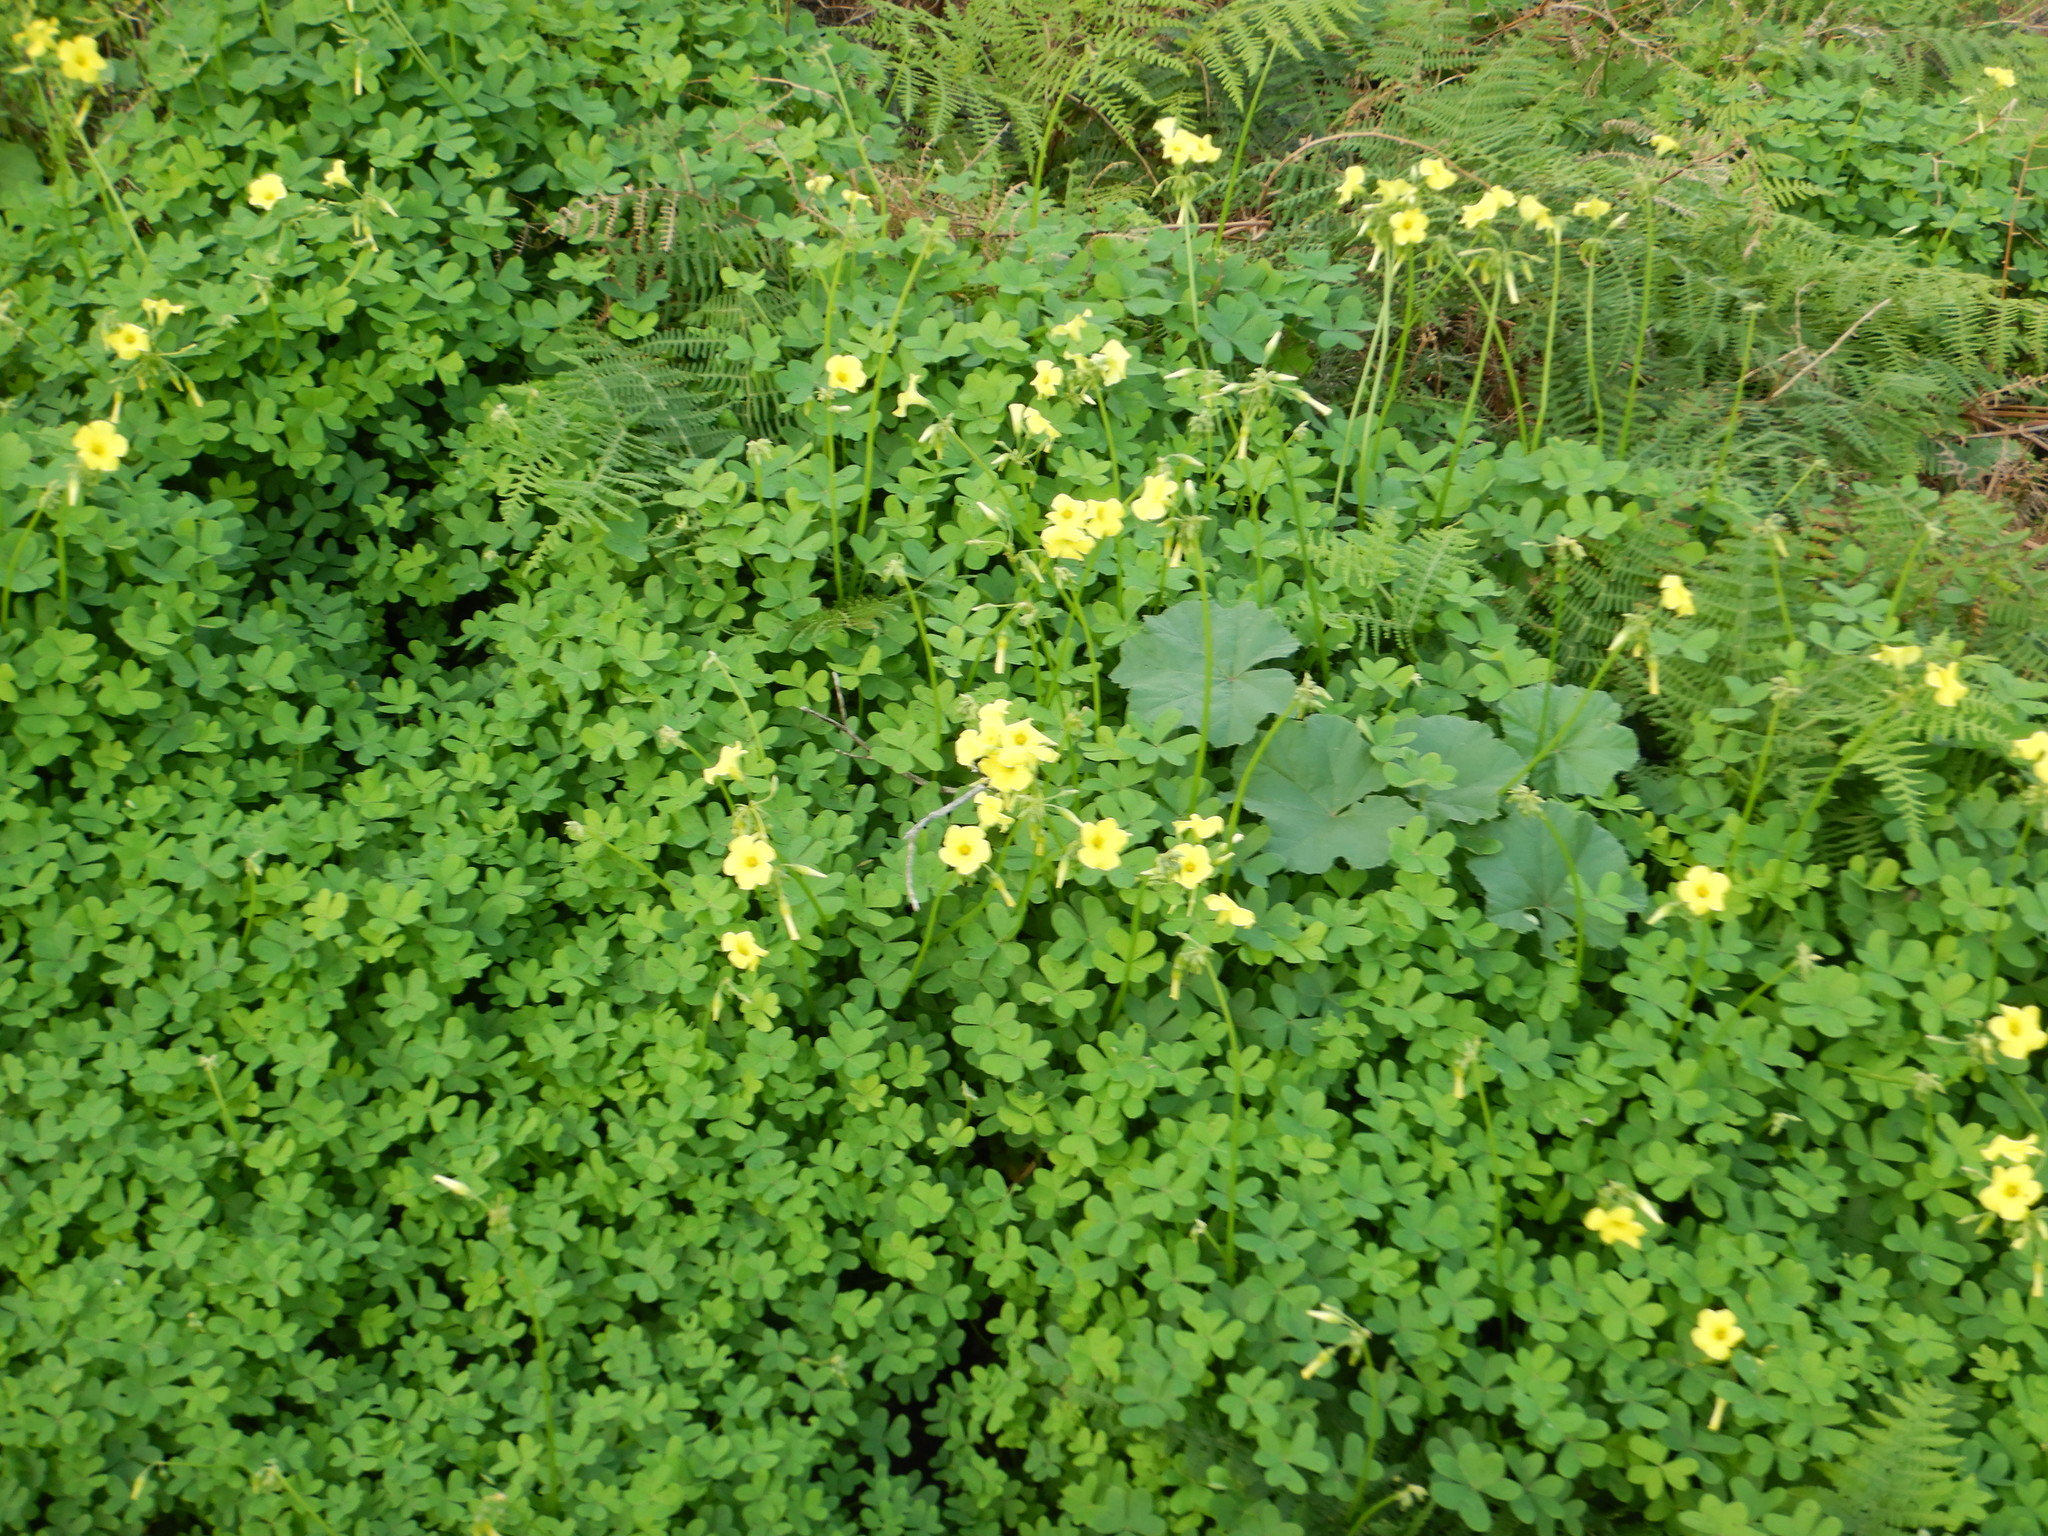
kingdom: Plantae
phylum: Tracheophyta
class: Magnoliopsida
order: Oxalidales
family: Oxalidaceae
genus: Oxalis
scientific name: Oxalis pes-caprae
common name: Bermuda-buttercup
